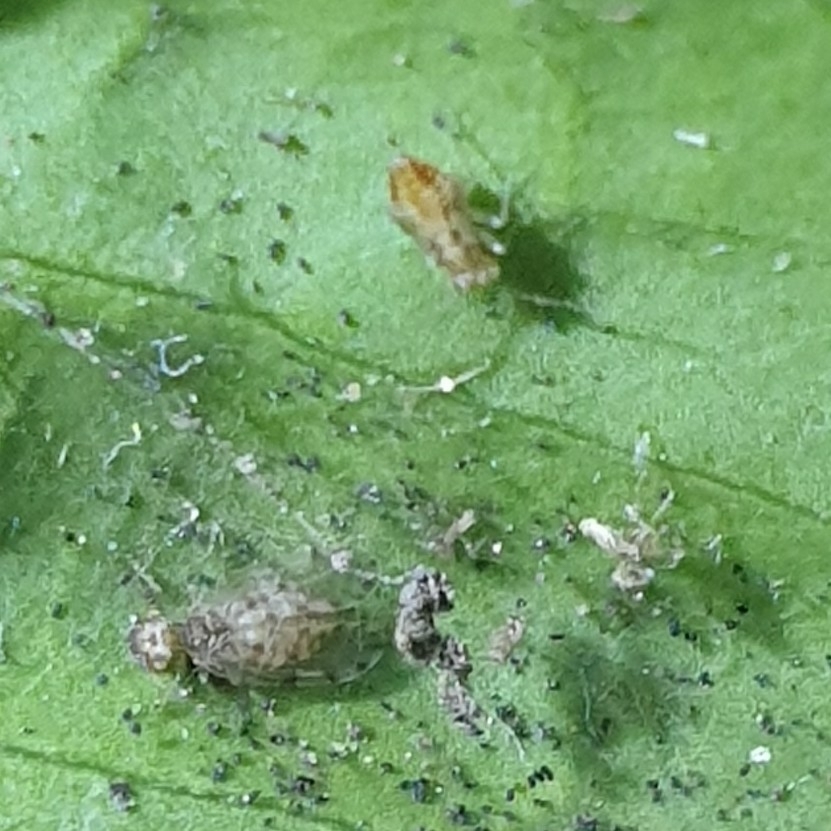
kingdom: Animalia
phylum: Arthropoda
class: Insecta
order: Psocodea
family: Ectopsocidae
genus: Ectopsocus
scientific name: Ectopsocus petersi
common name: Medium-sized bark louse
